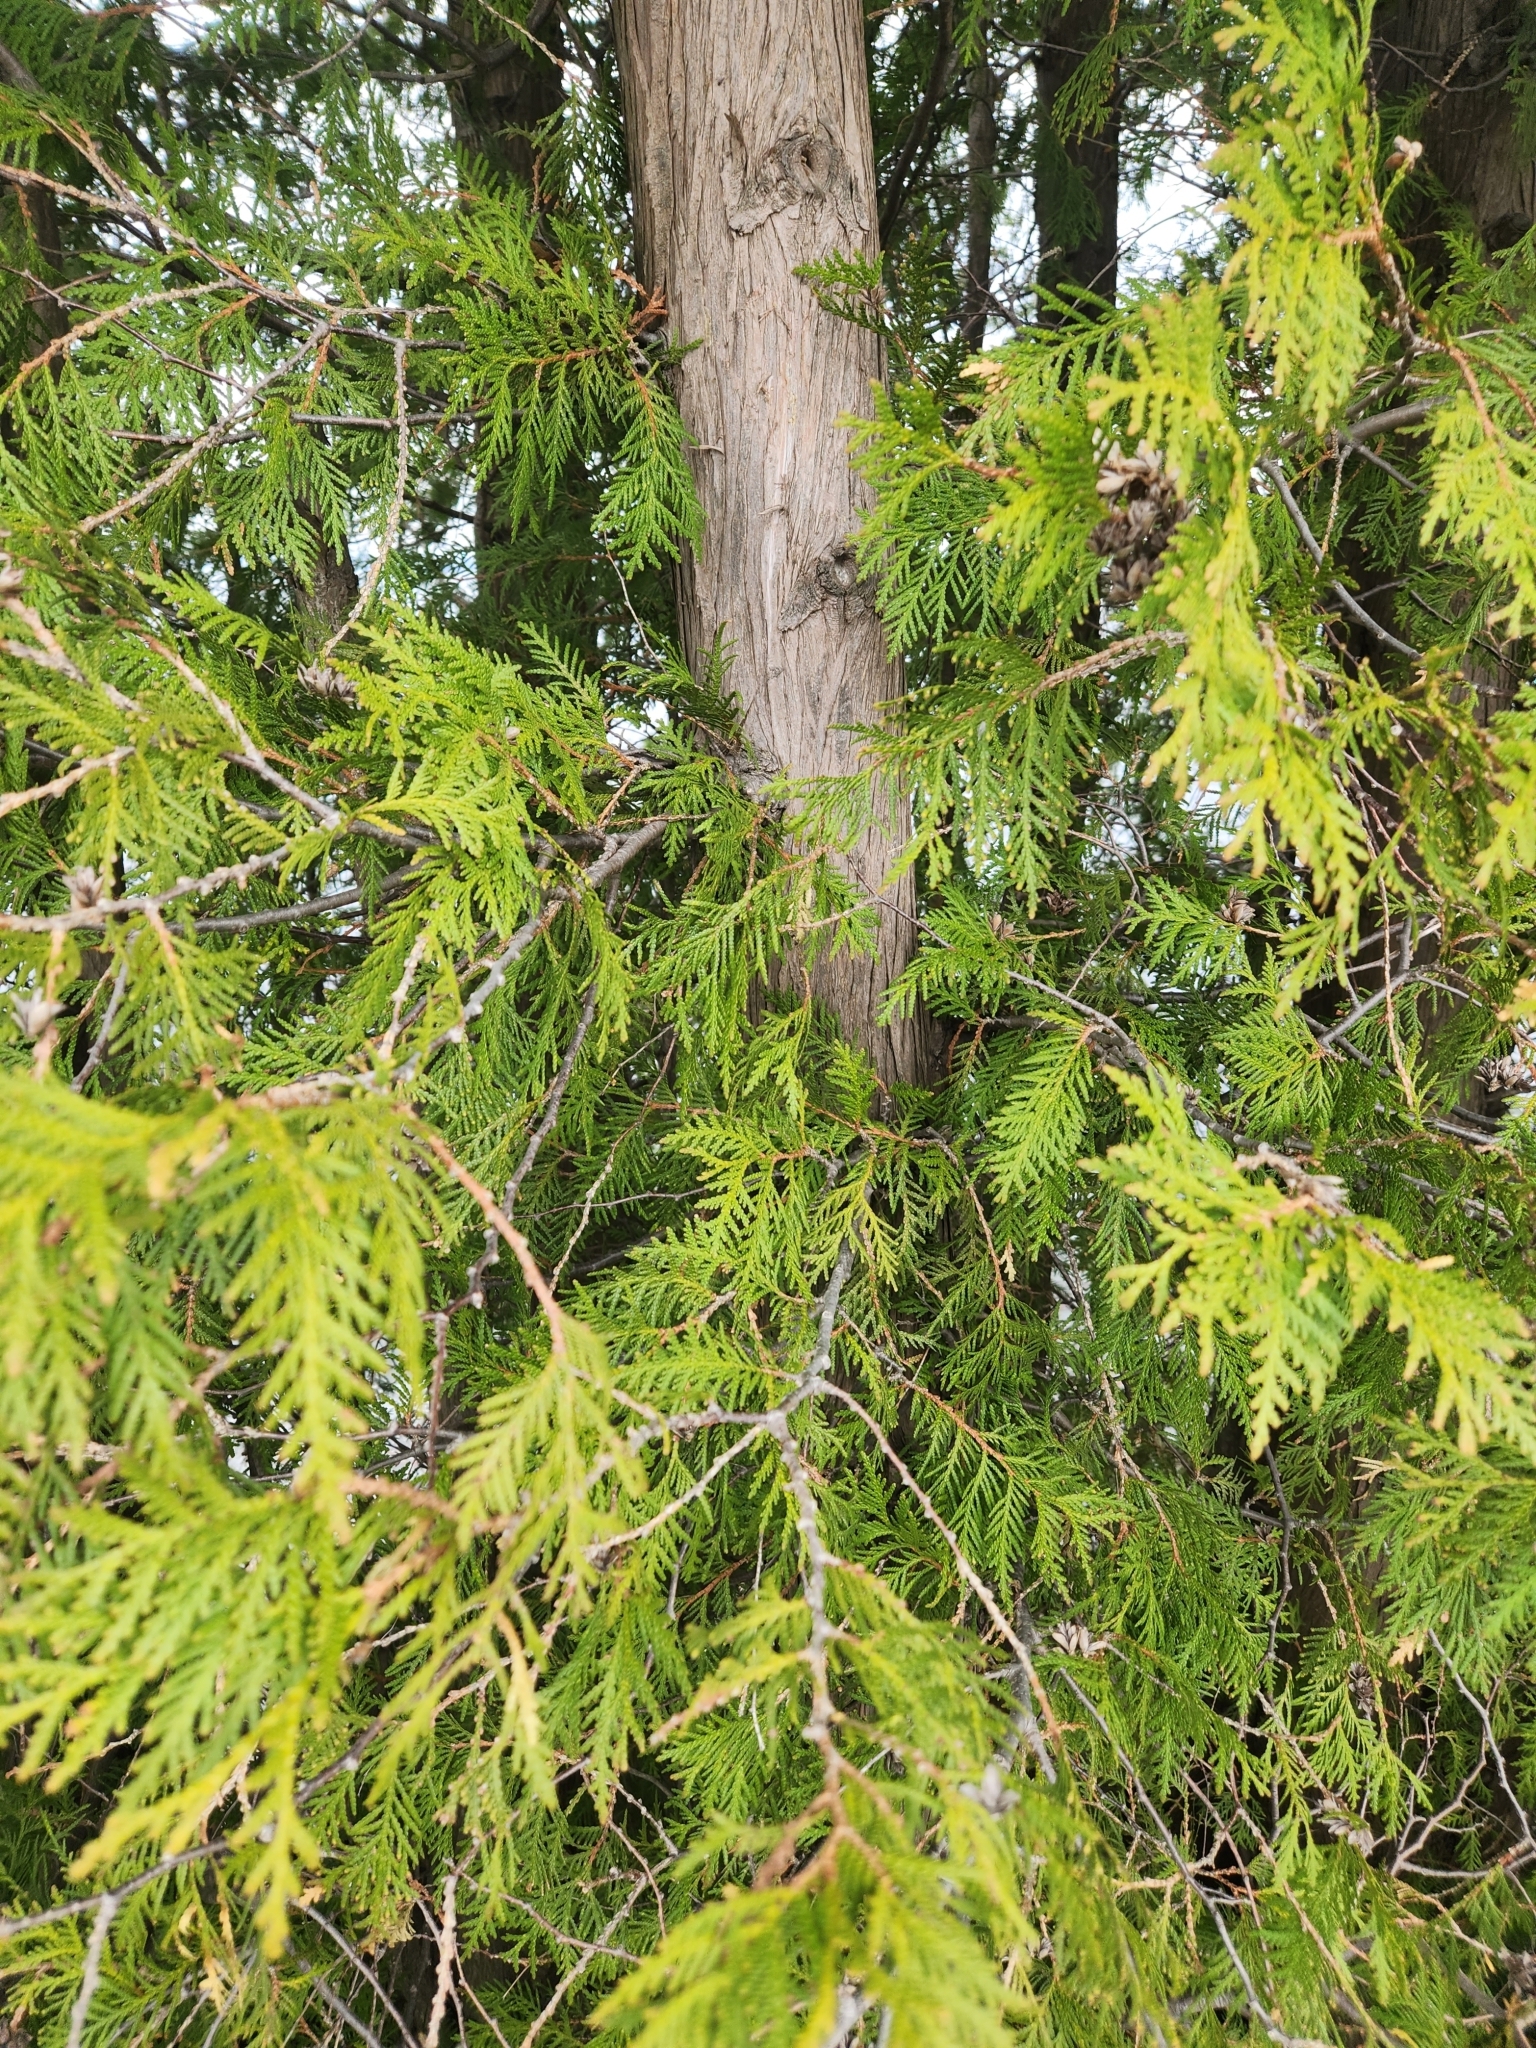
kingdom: Plantae
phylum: Tracheophyta
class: Pinopsida
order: Pinales
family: Cupressaceae
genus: Thuja
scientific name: Thuja occidentalis
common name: Northern white-cedar
